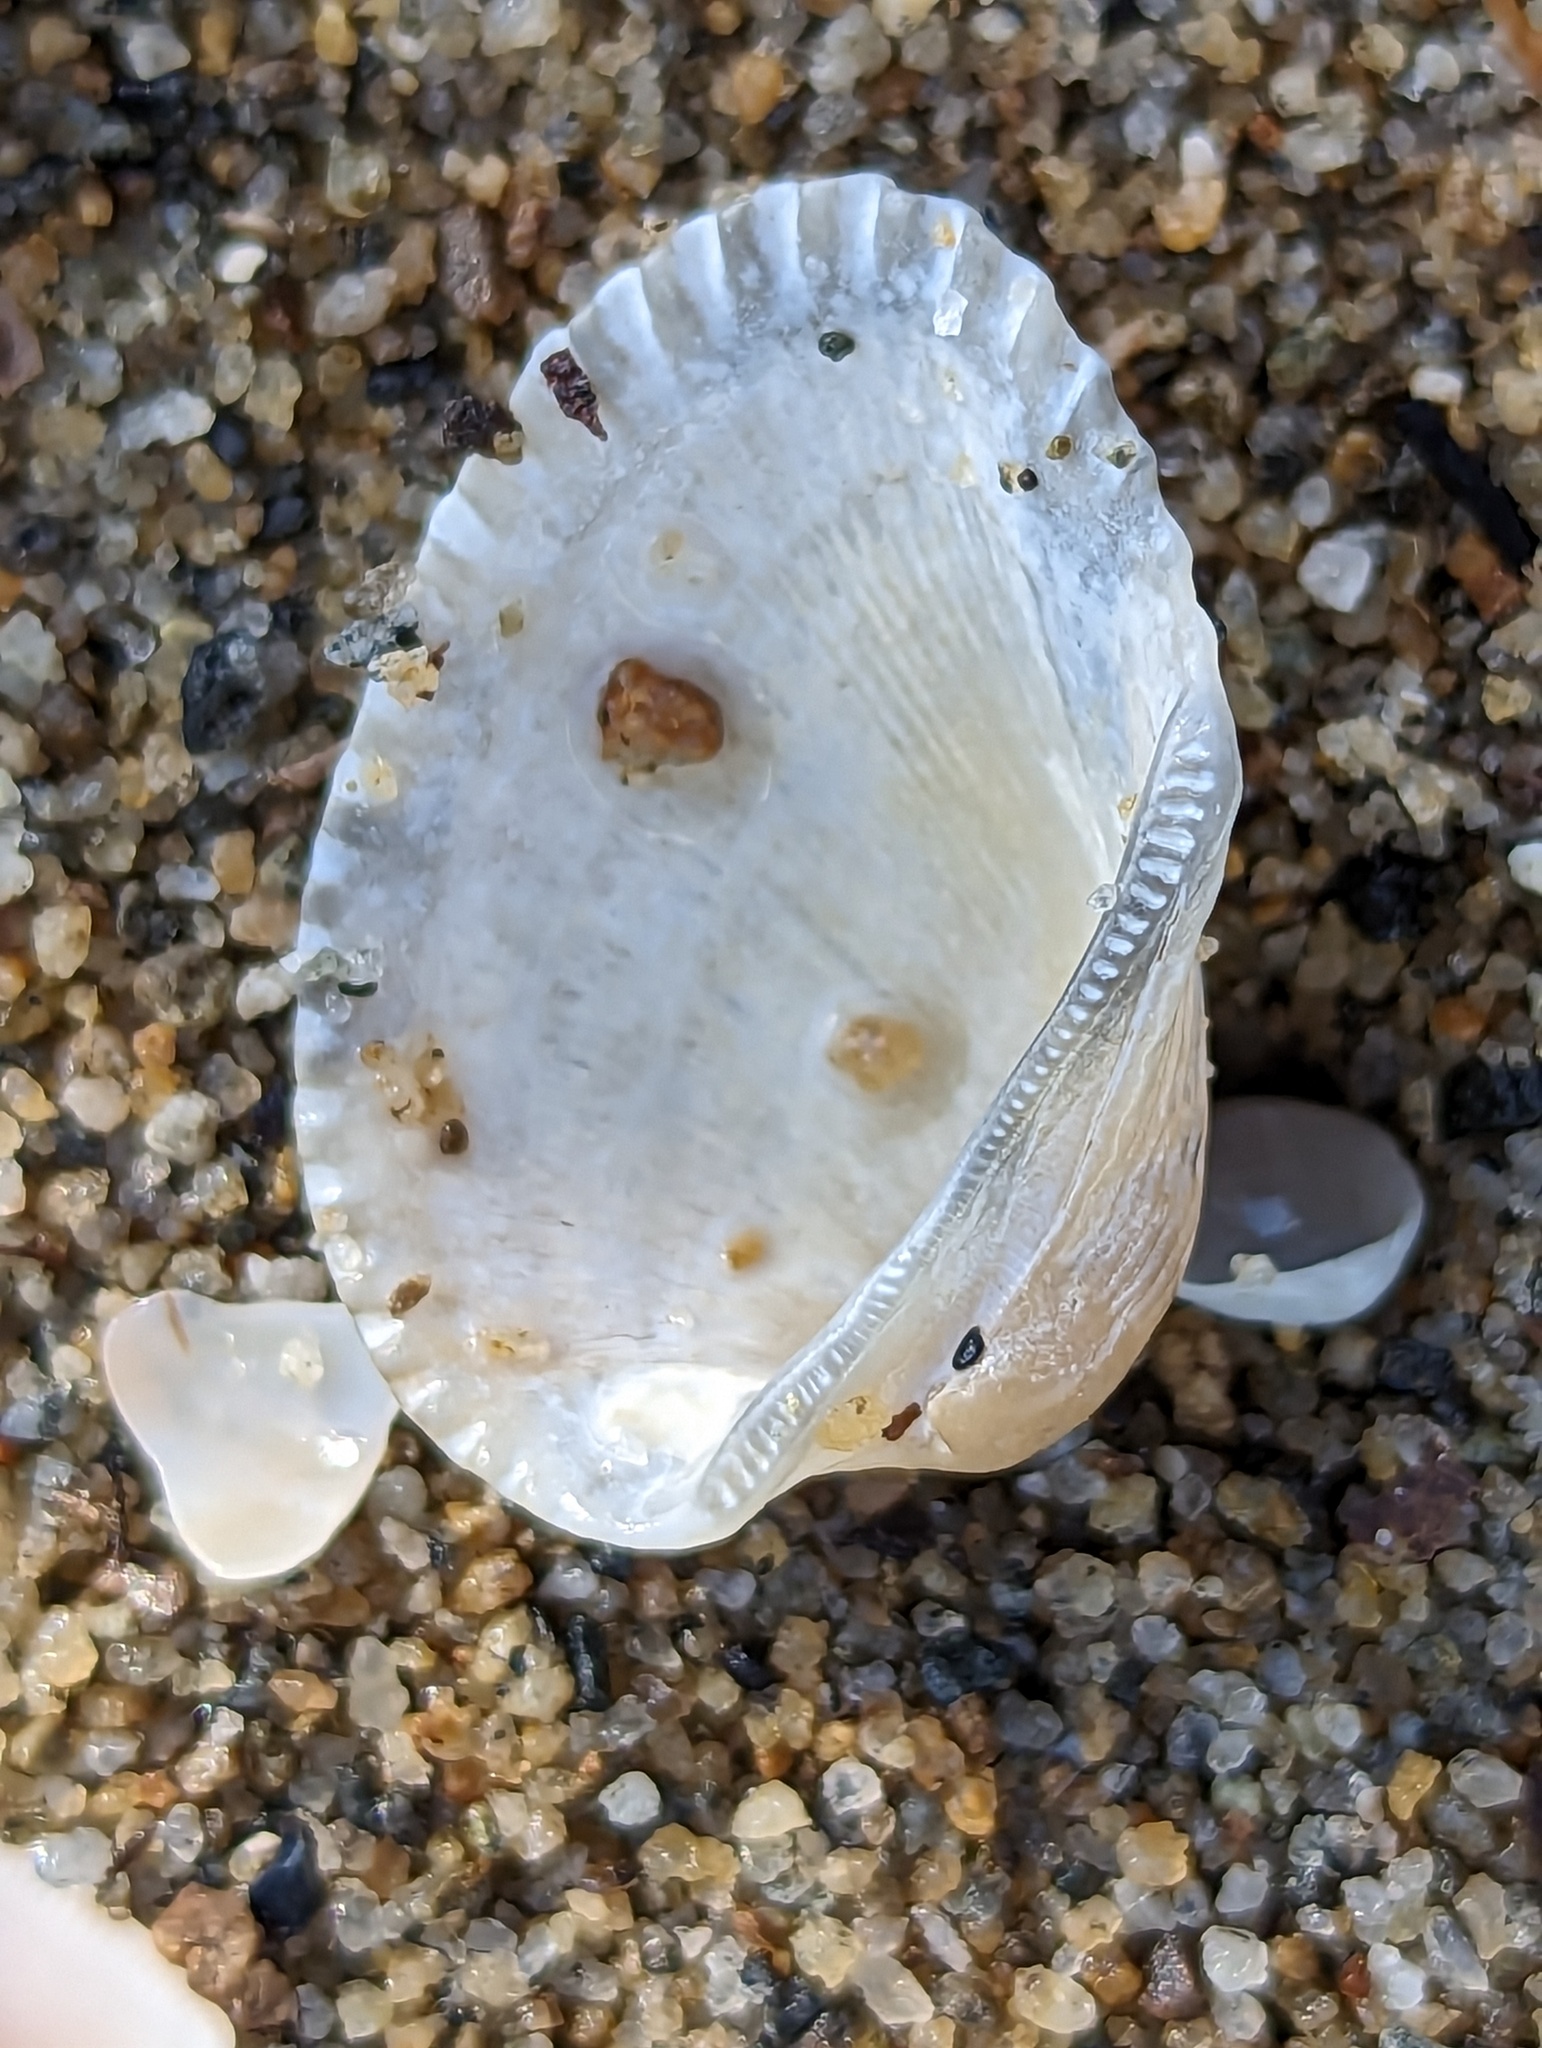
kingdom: Animalia
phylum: Mollusca
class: Bivalvia
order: Cardiida
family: Cardiidae
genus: Dallocardia
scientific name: Dallocardia muricata
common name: Yellow pricklycockle
